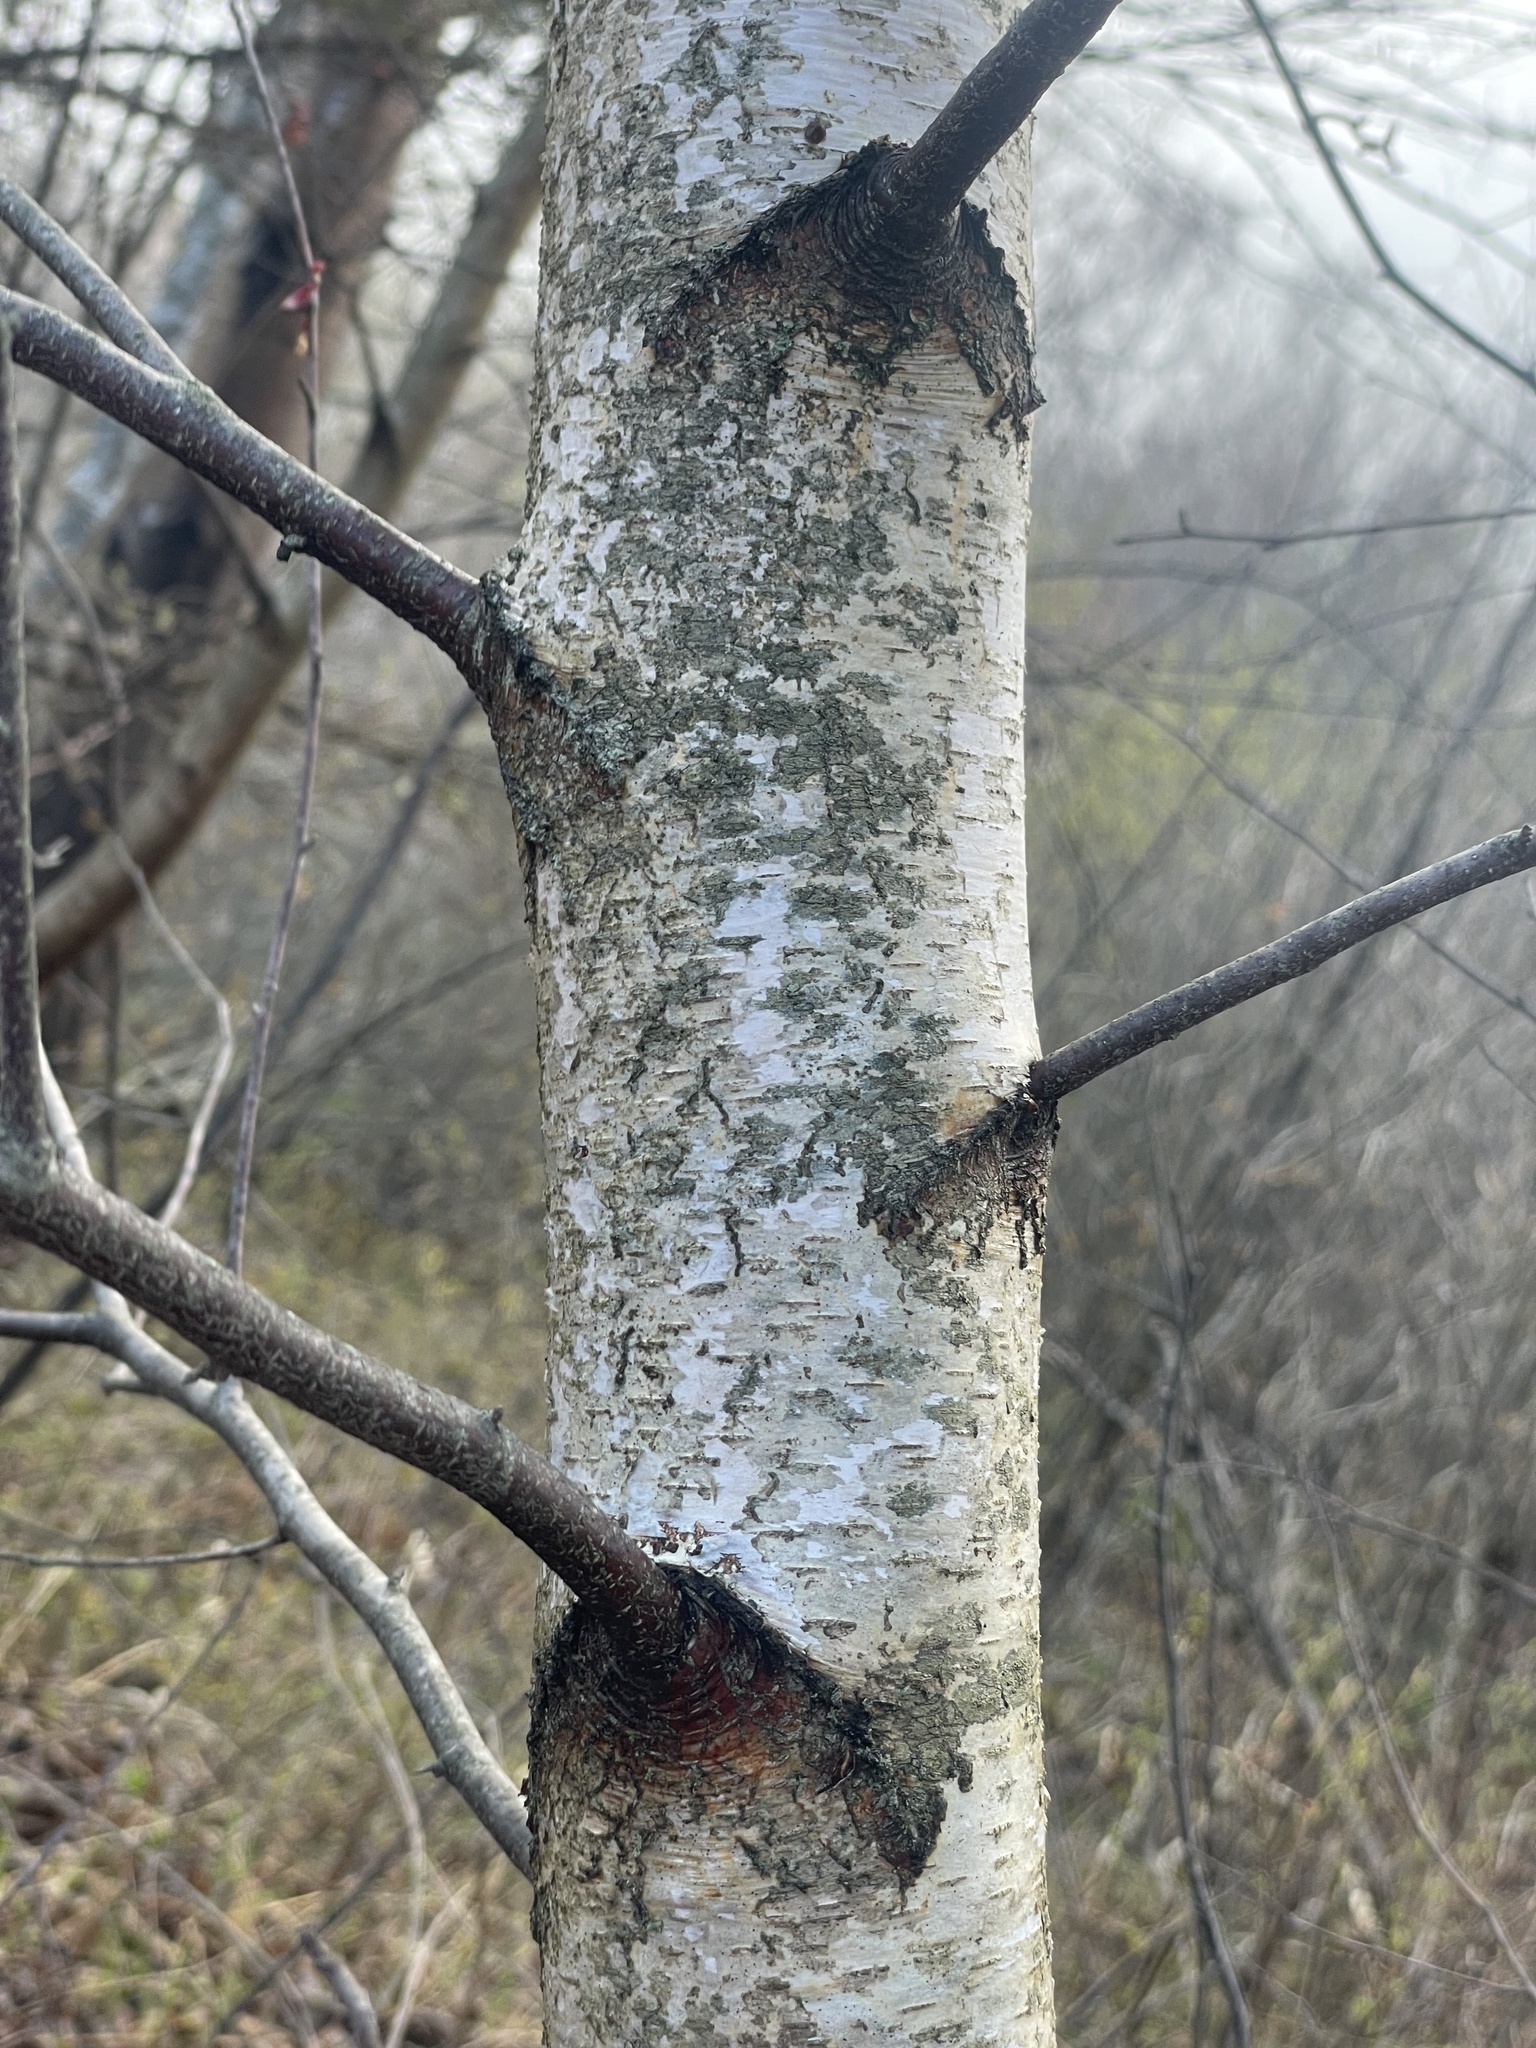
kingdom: Plantae
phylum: Tracheophyta
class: Magnoliopsida
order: Fagales
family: Betulaceae
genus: Betula
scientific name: Betula populifolia
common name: Fire birch
